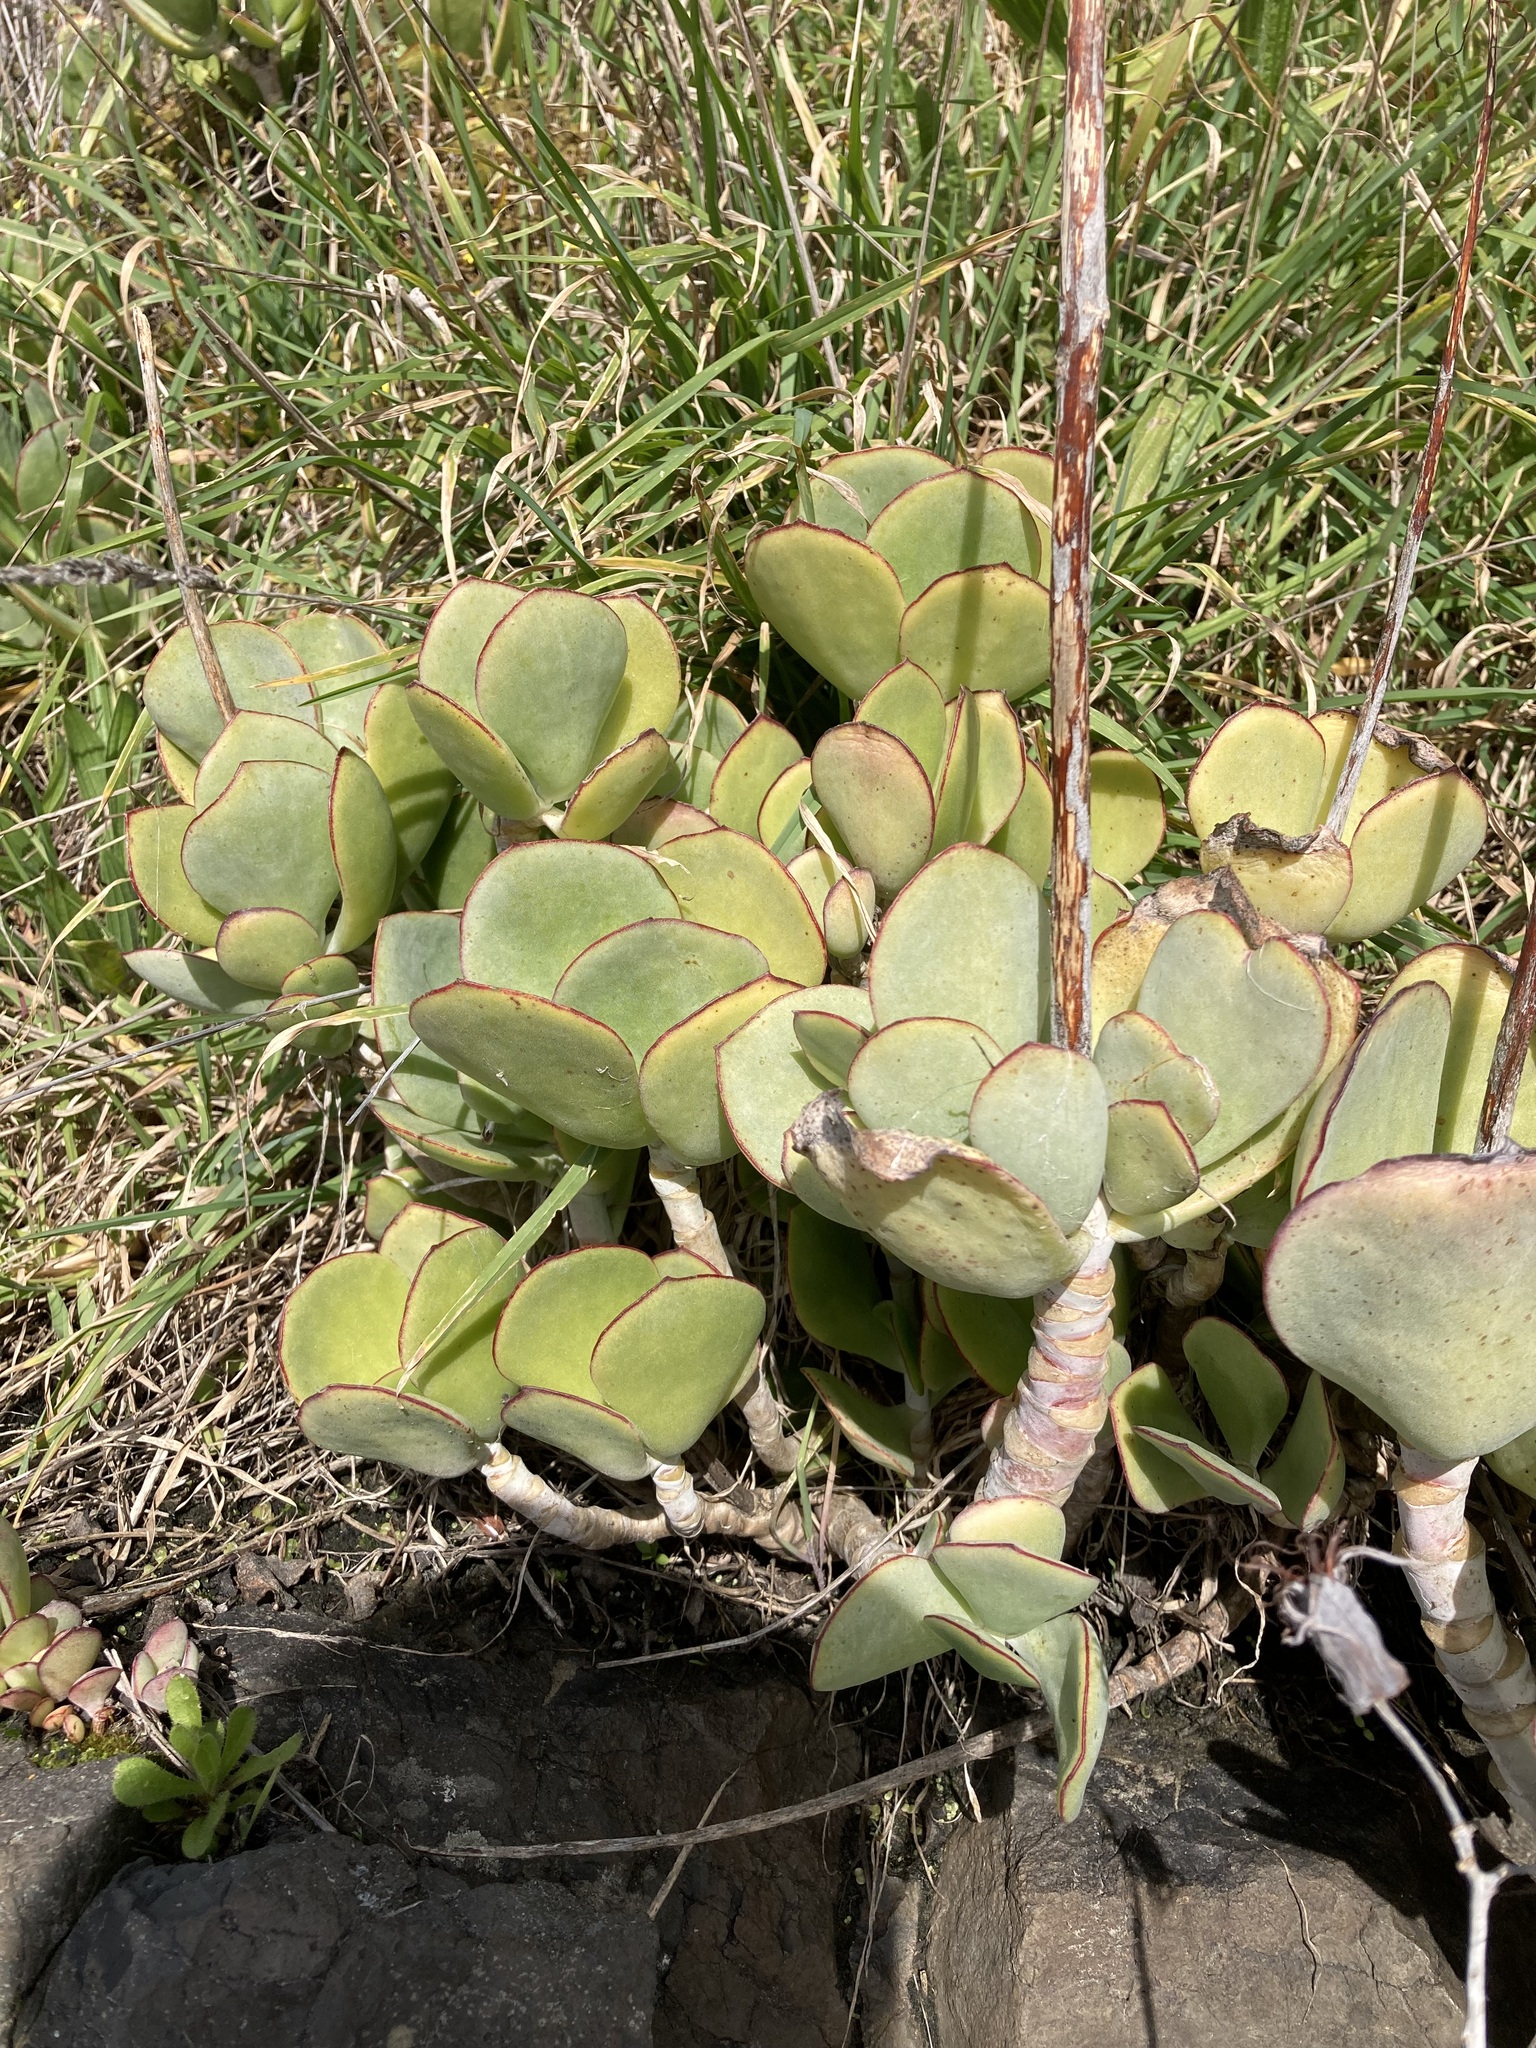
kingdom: Plantae
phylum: Tracheophyta
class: Magnoliopsida
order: Saxifragales
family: Crassulaceae
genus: Cotyledon
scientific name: Cotyledon orbiculata
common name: Pig's ear
